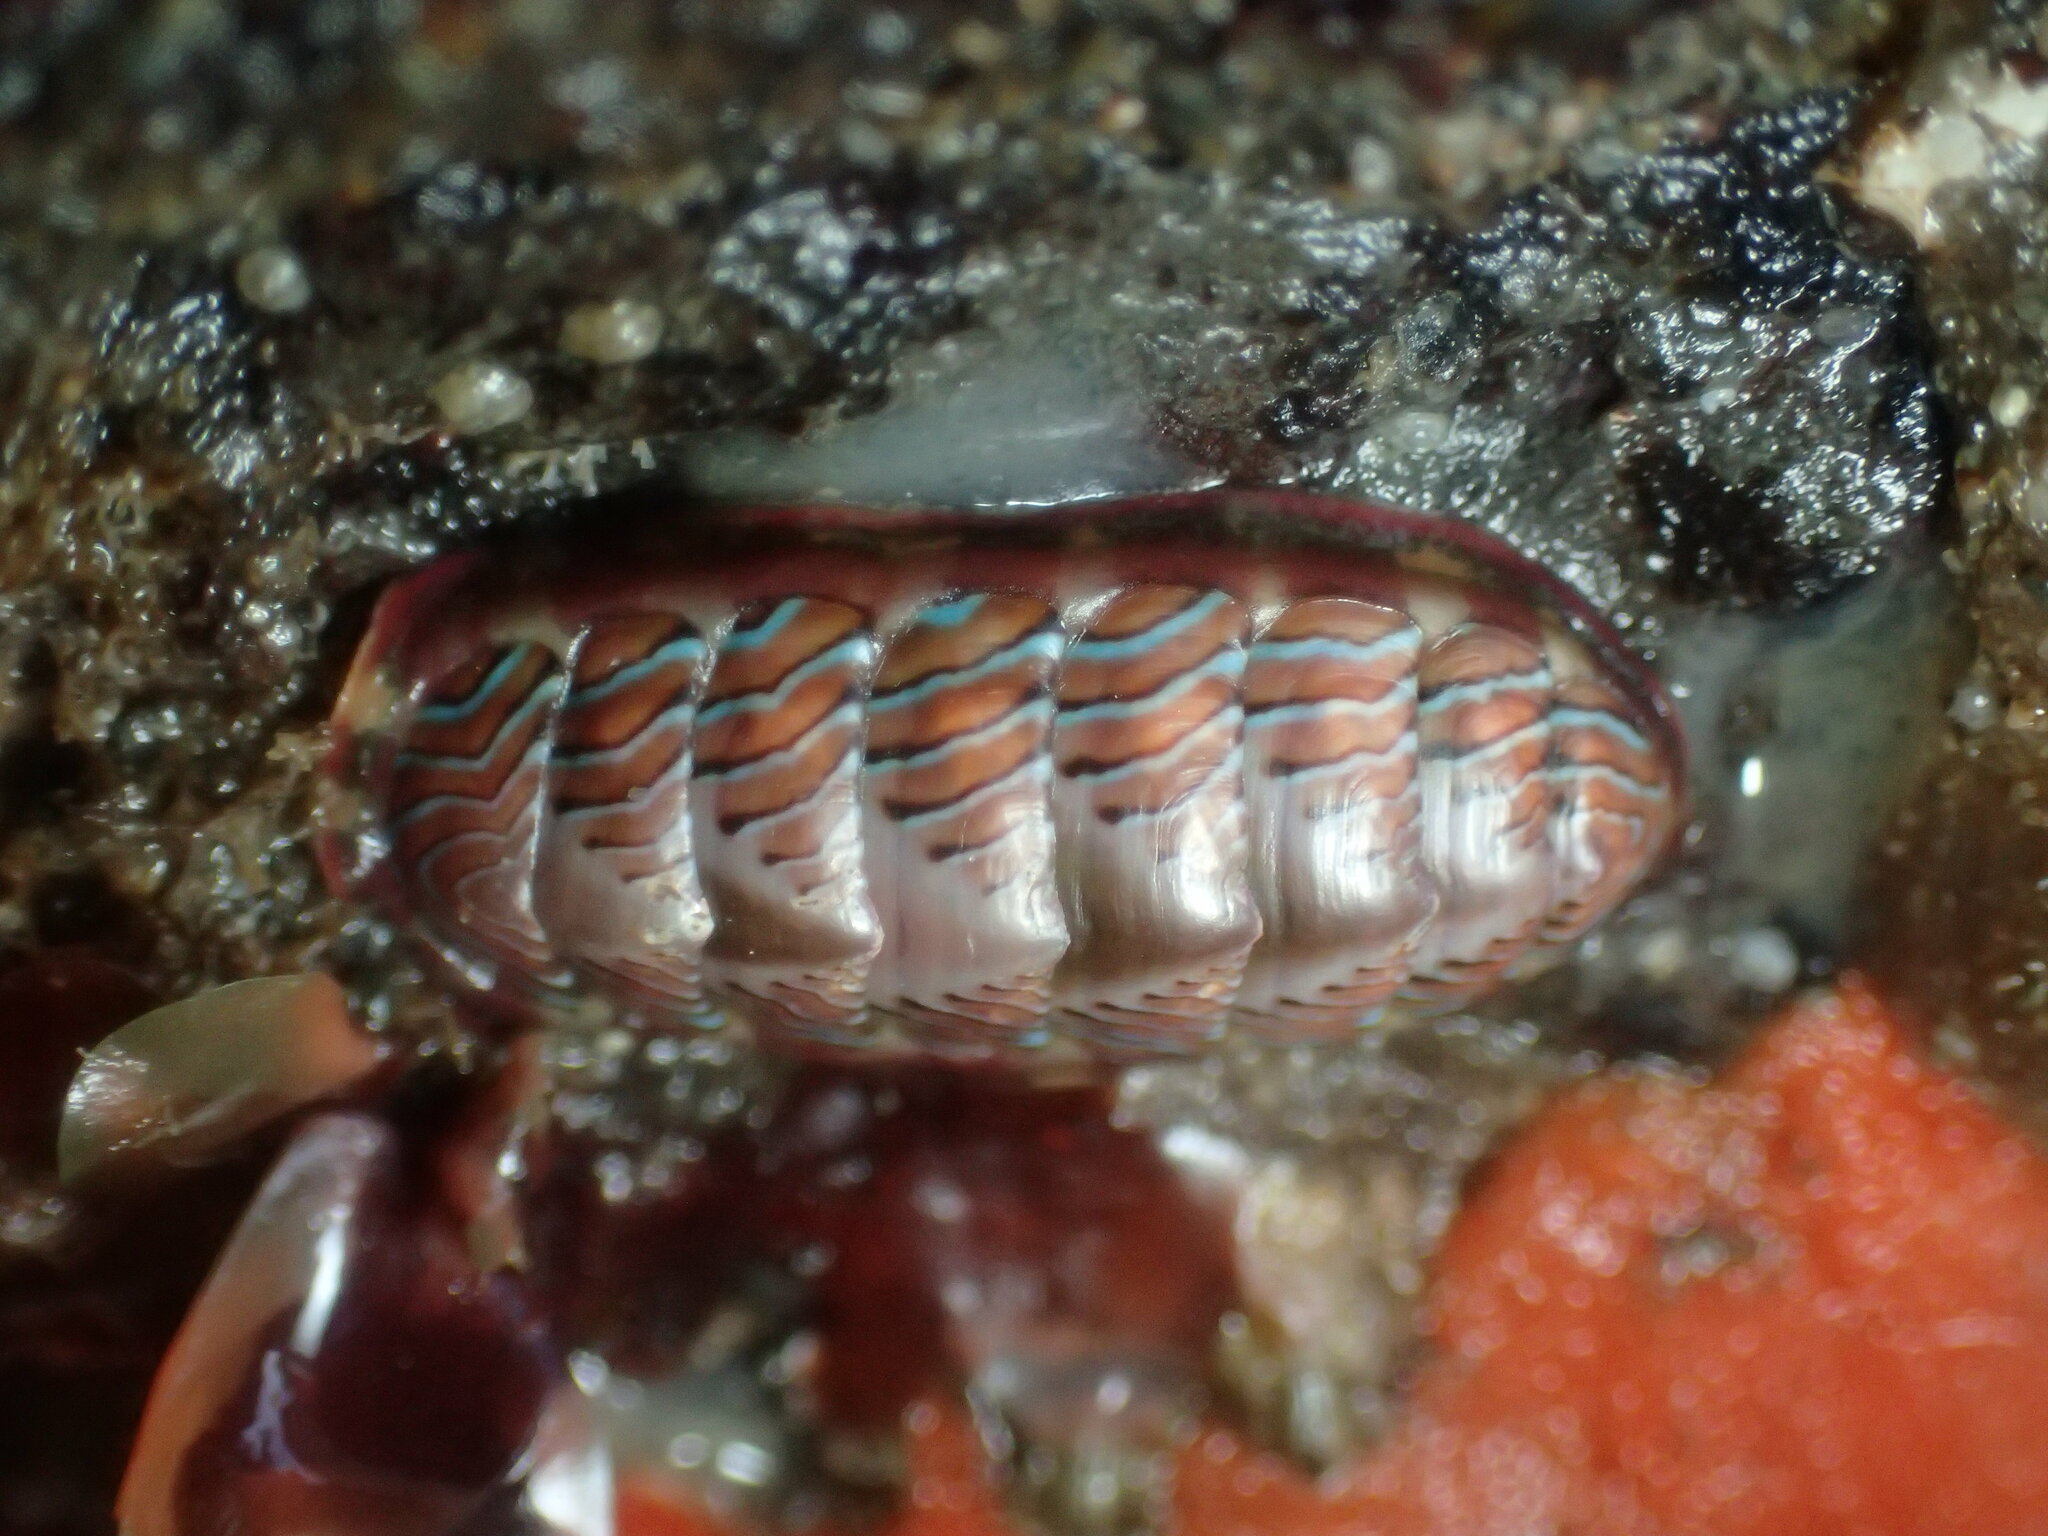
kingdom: Animalia
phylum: Mollusca
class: Polyplacophora
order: Chitonida
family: Tonicellidae
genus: Tonicella
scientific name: Tonicella lineata
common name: Lined chiton
